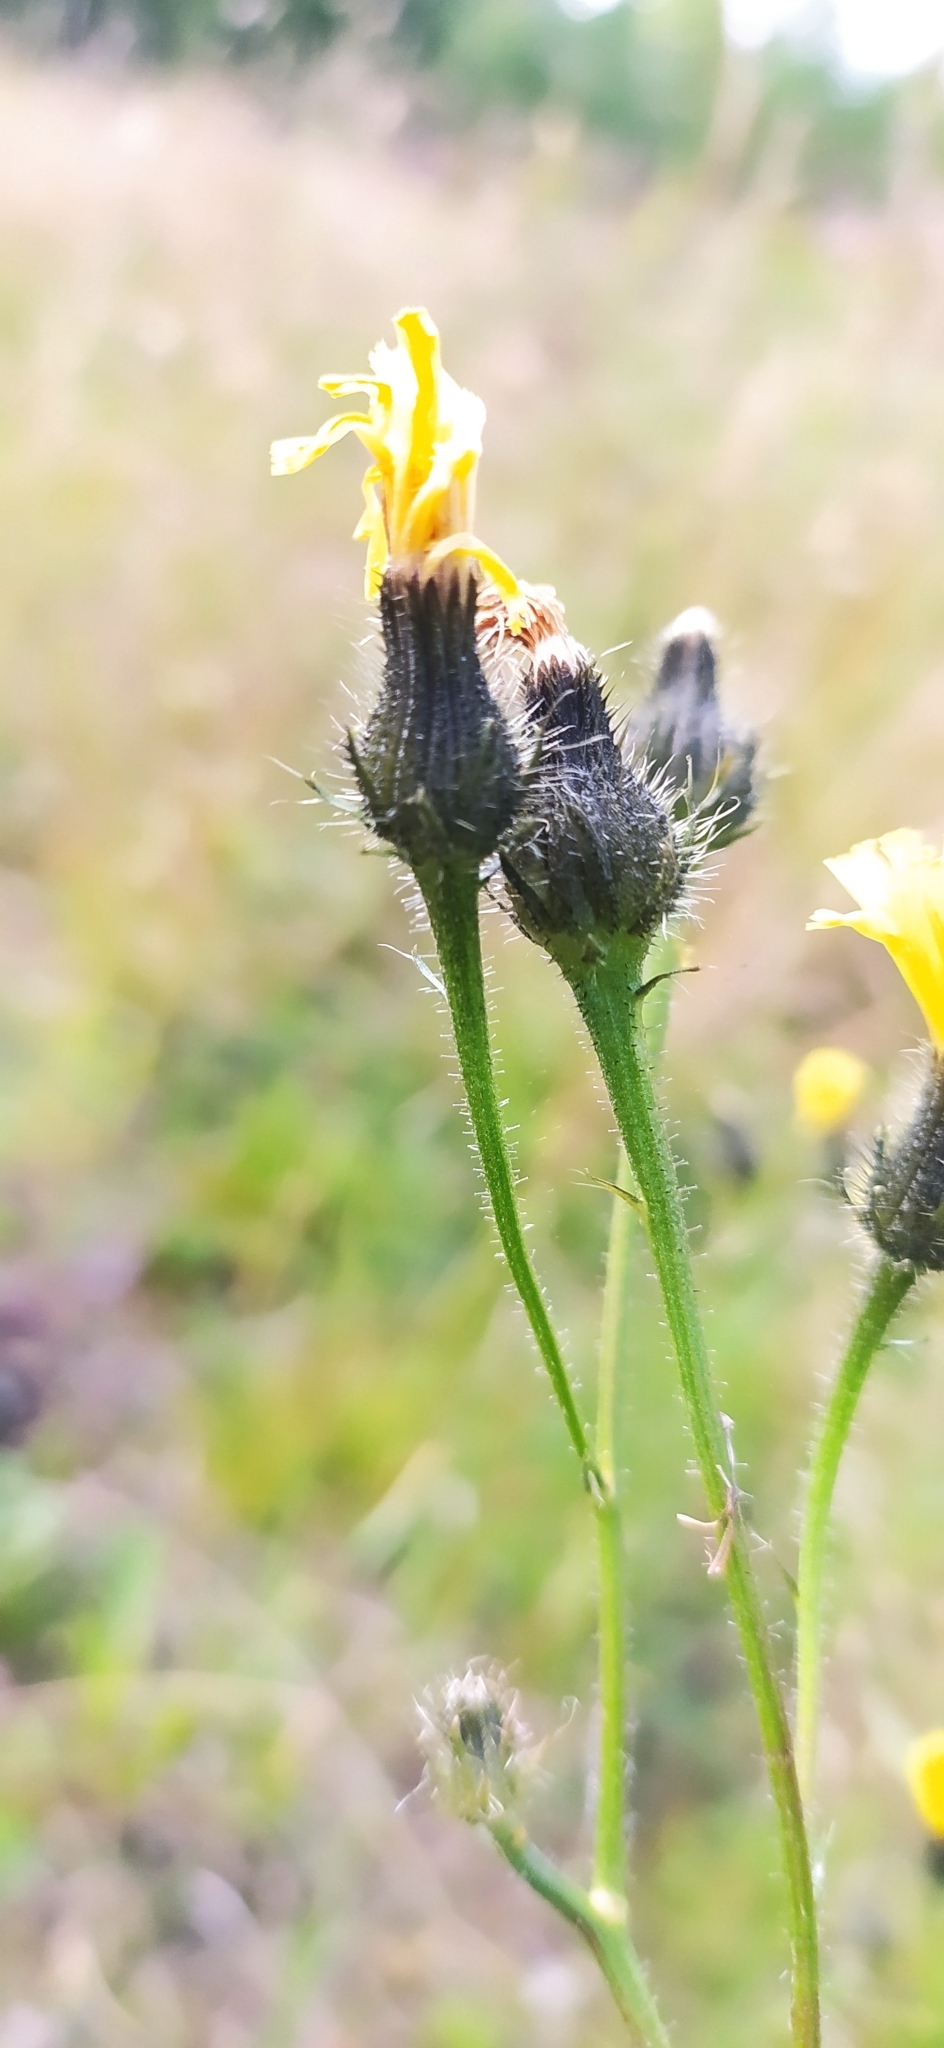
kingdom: Plantae
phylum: Tracheophyta
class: Magnoliopsida
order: Asterales
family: Asteraceae
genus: Picris
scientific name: Picris hieracioides
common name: Hawkweed oxtongue
